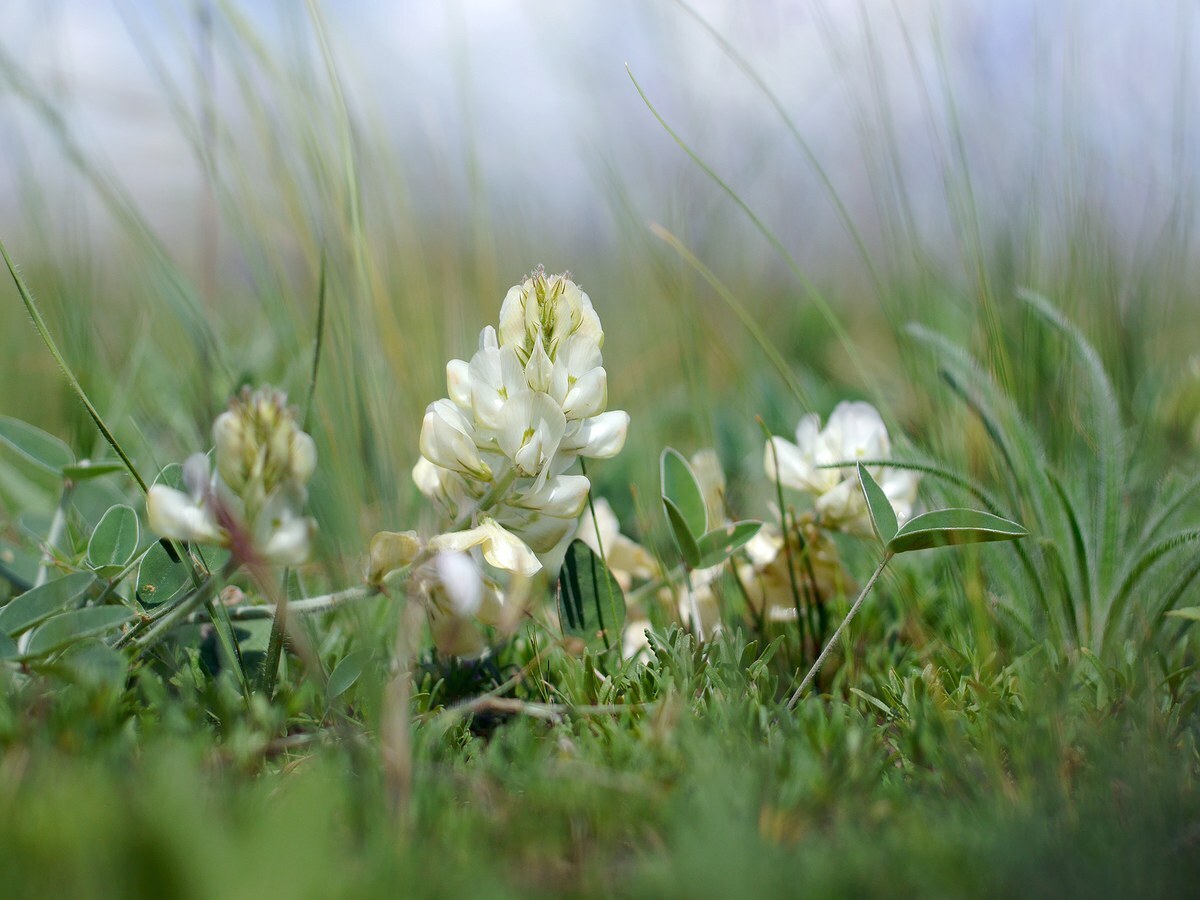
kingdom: Plantae
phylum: Tracheophyta
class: Magnoliopsida
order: Fabales
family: Fabaceae
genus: Hedysarum
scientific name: Hedysarum grandiflorum
